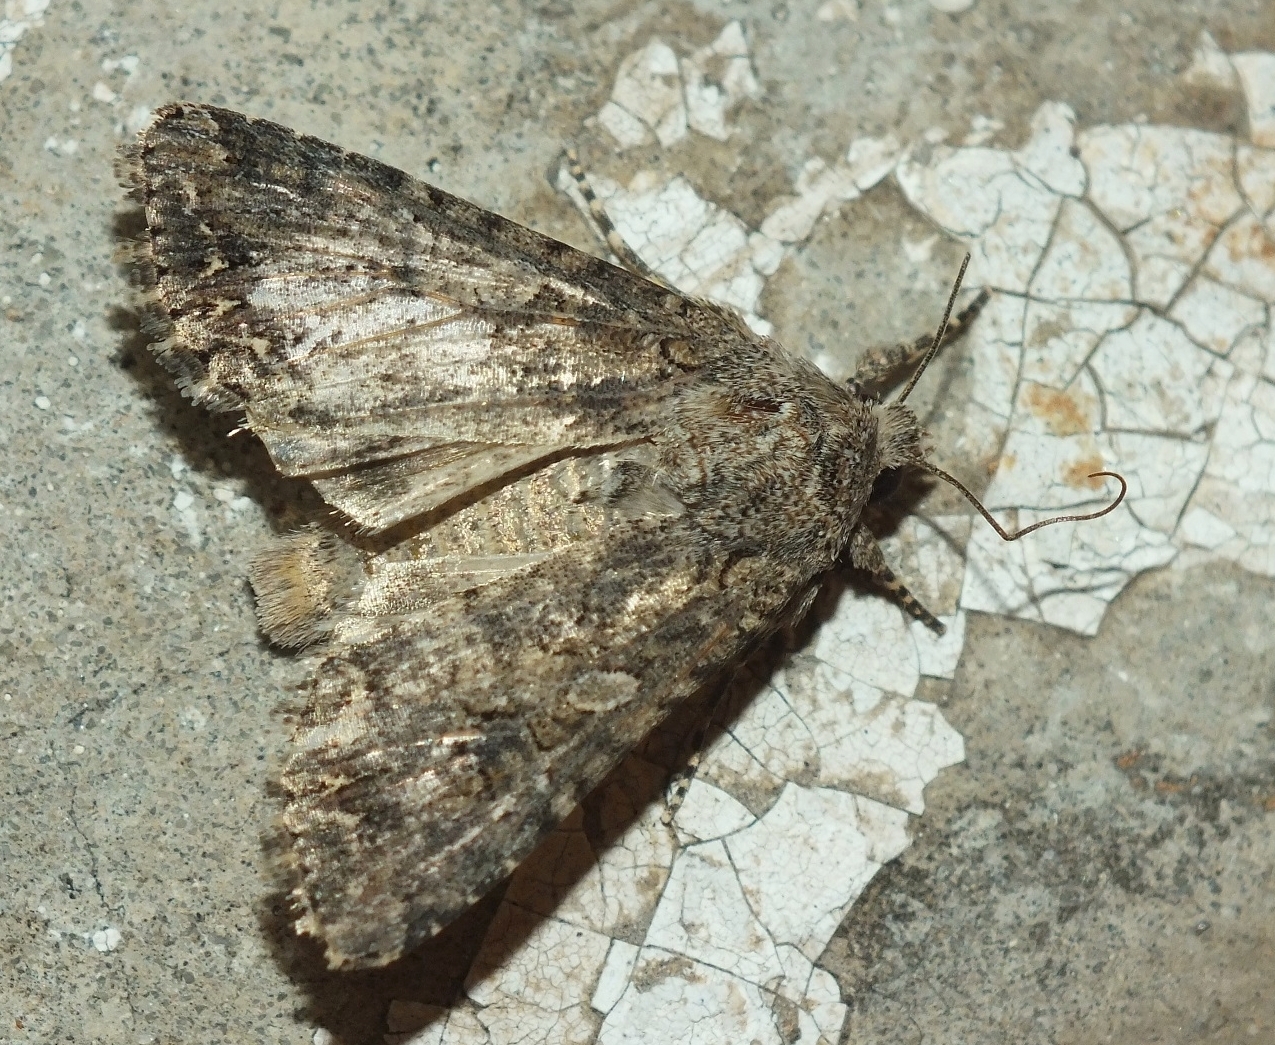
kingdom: Animalia
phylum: Arthropoda
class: Insecta
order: Lepidoptera
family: Noctuidae
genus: Anarta
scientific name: Anarta trifolii
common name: Clover cutworm moth
